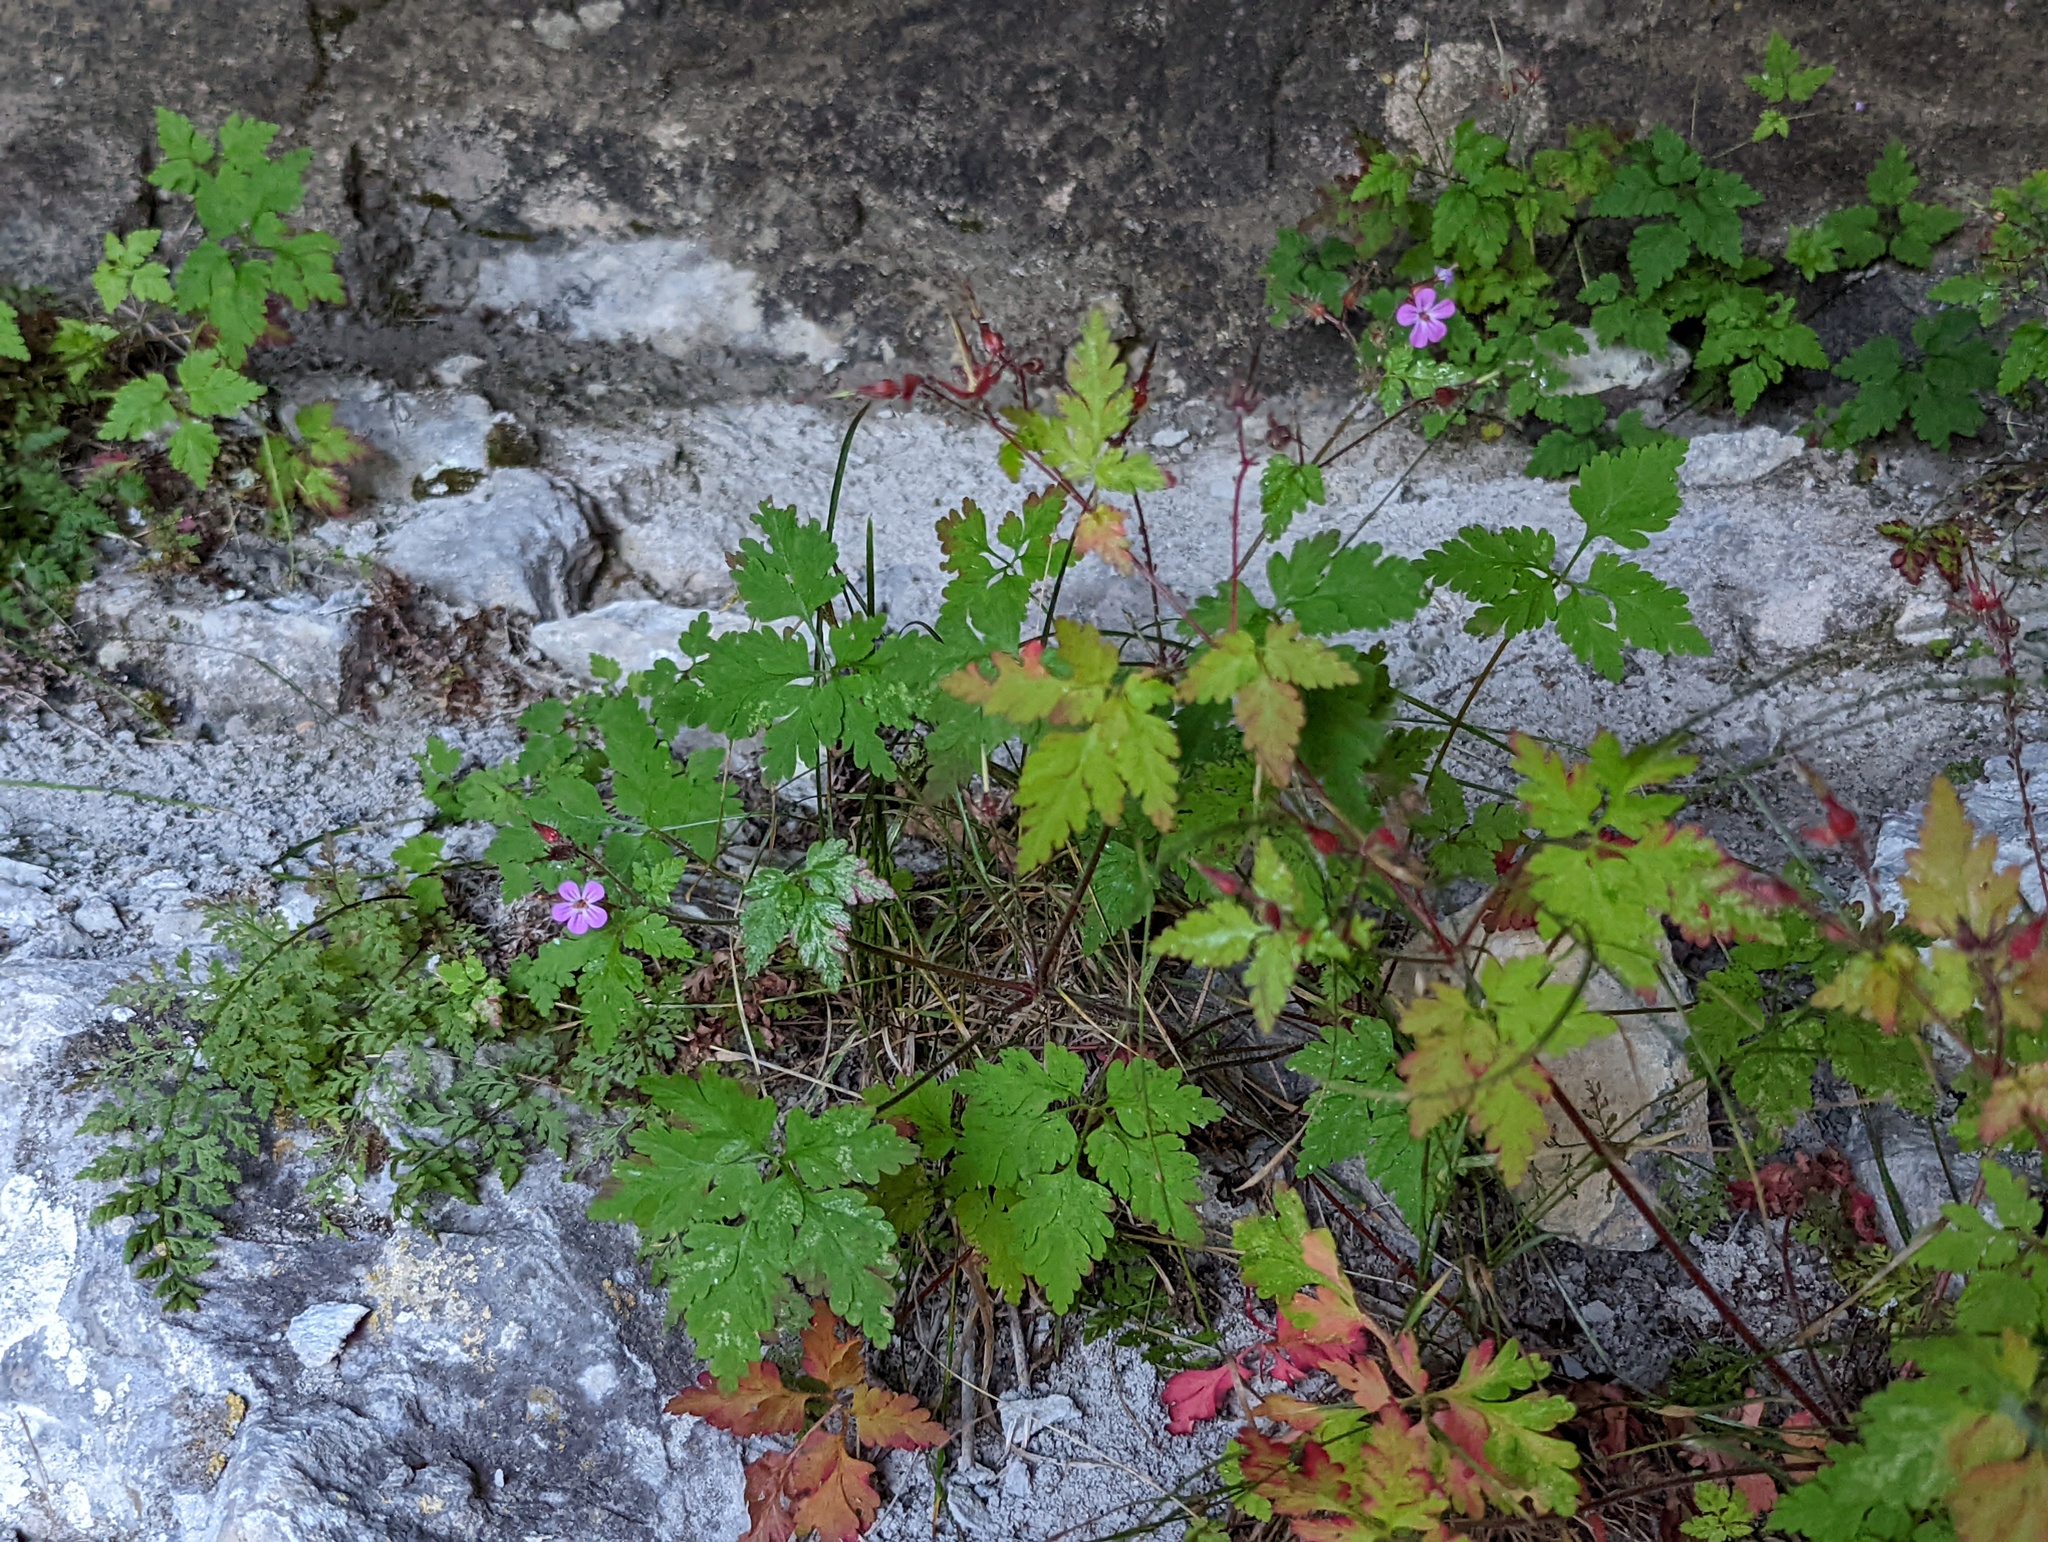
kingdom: Plantae
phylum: Tracheophyta
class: Magnoliopsida
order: Geraniales
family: Geraniaceae
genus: Geranium
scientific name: Geranium robertianum
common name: Herb-robert
